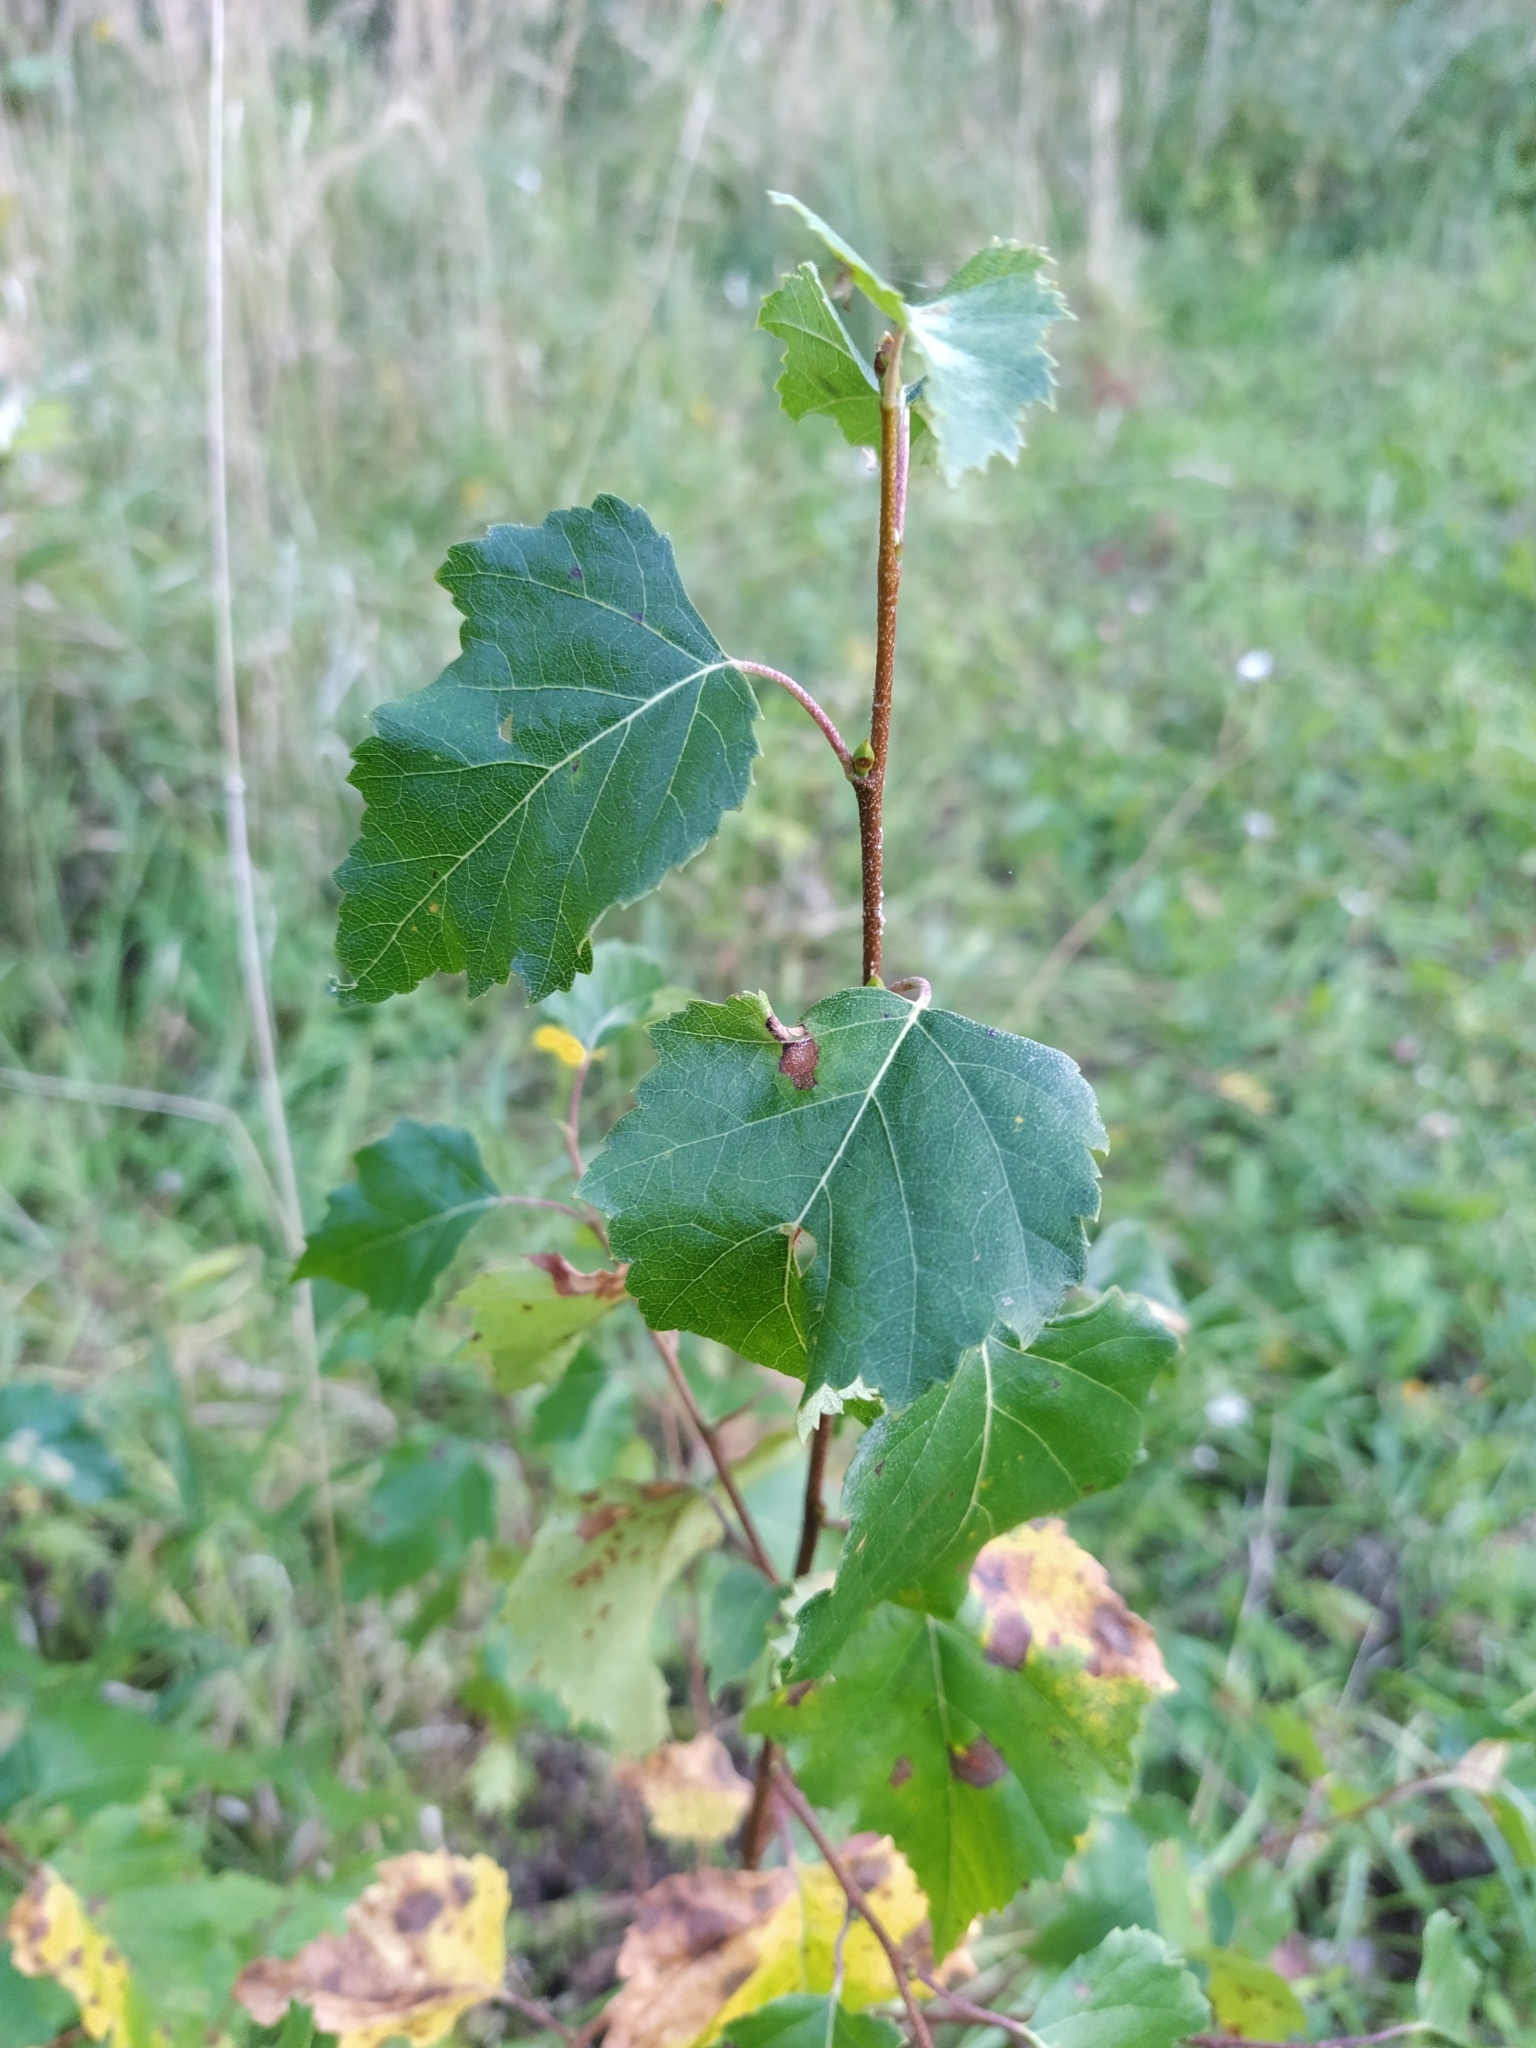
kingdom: Plantae
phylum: Tracheophyta
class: Magnoliopsida
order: Fagales
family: Betulaceae
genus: Betula
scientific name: Betula pendula
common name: Silver birch
